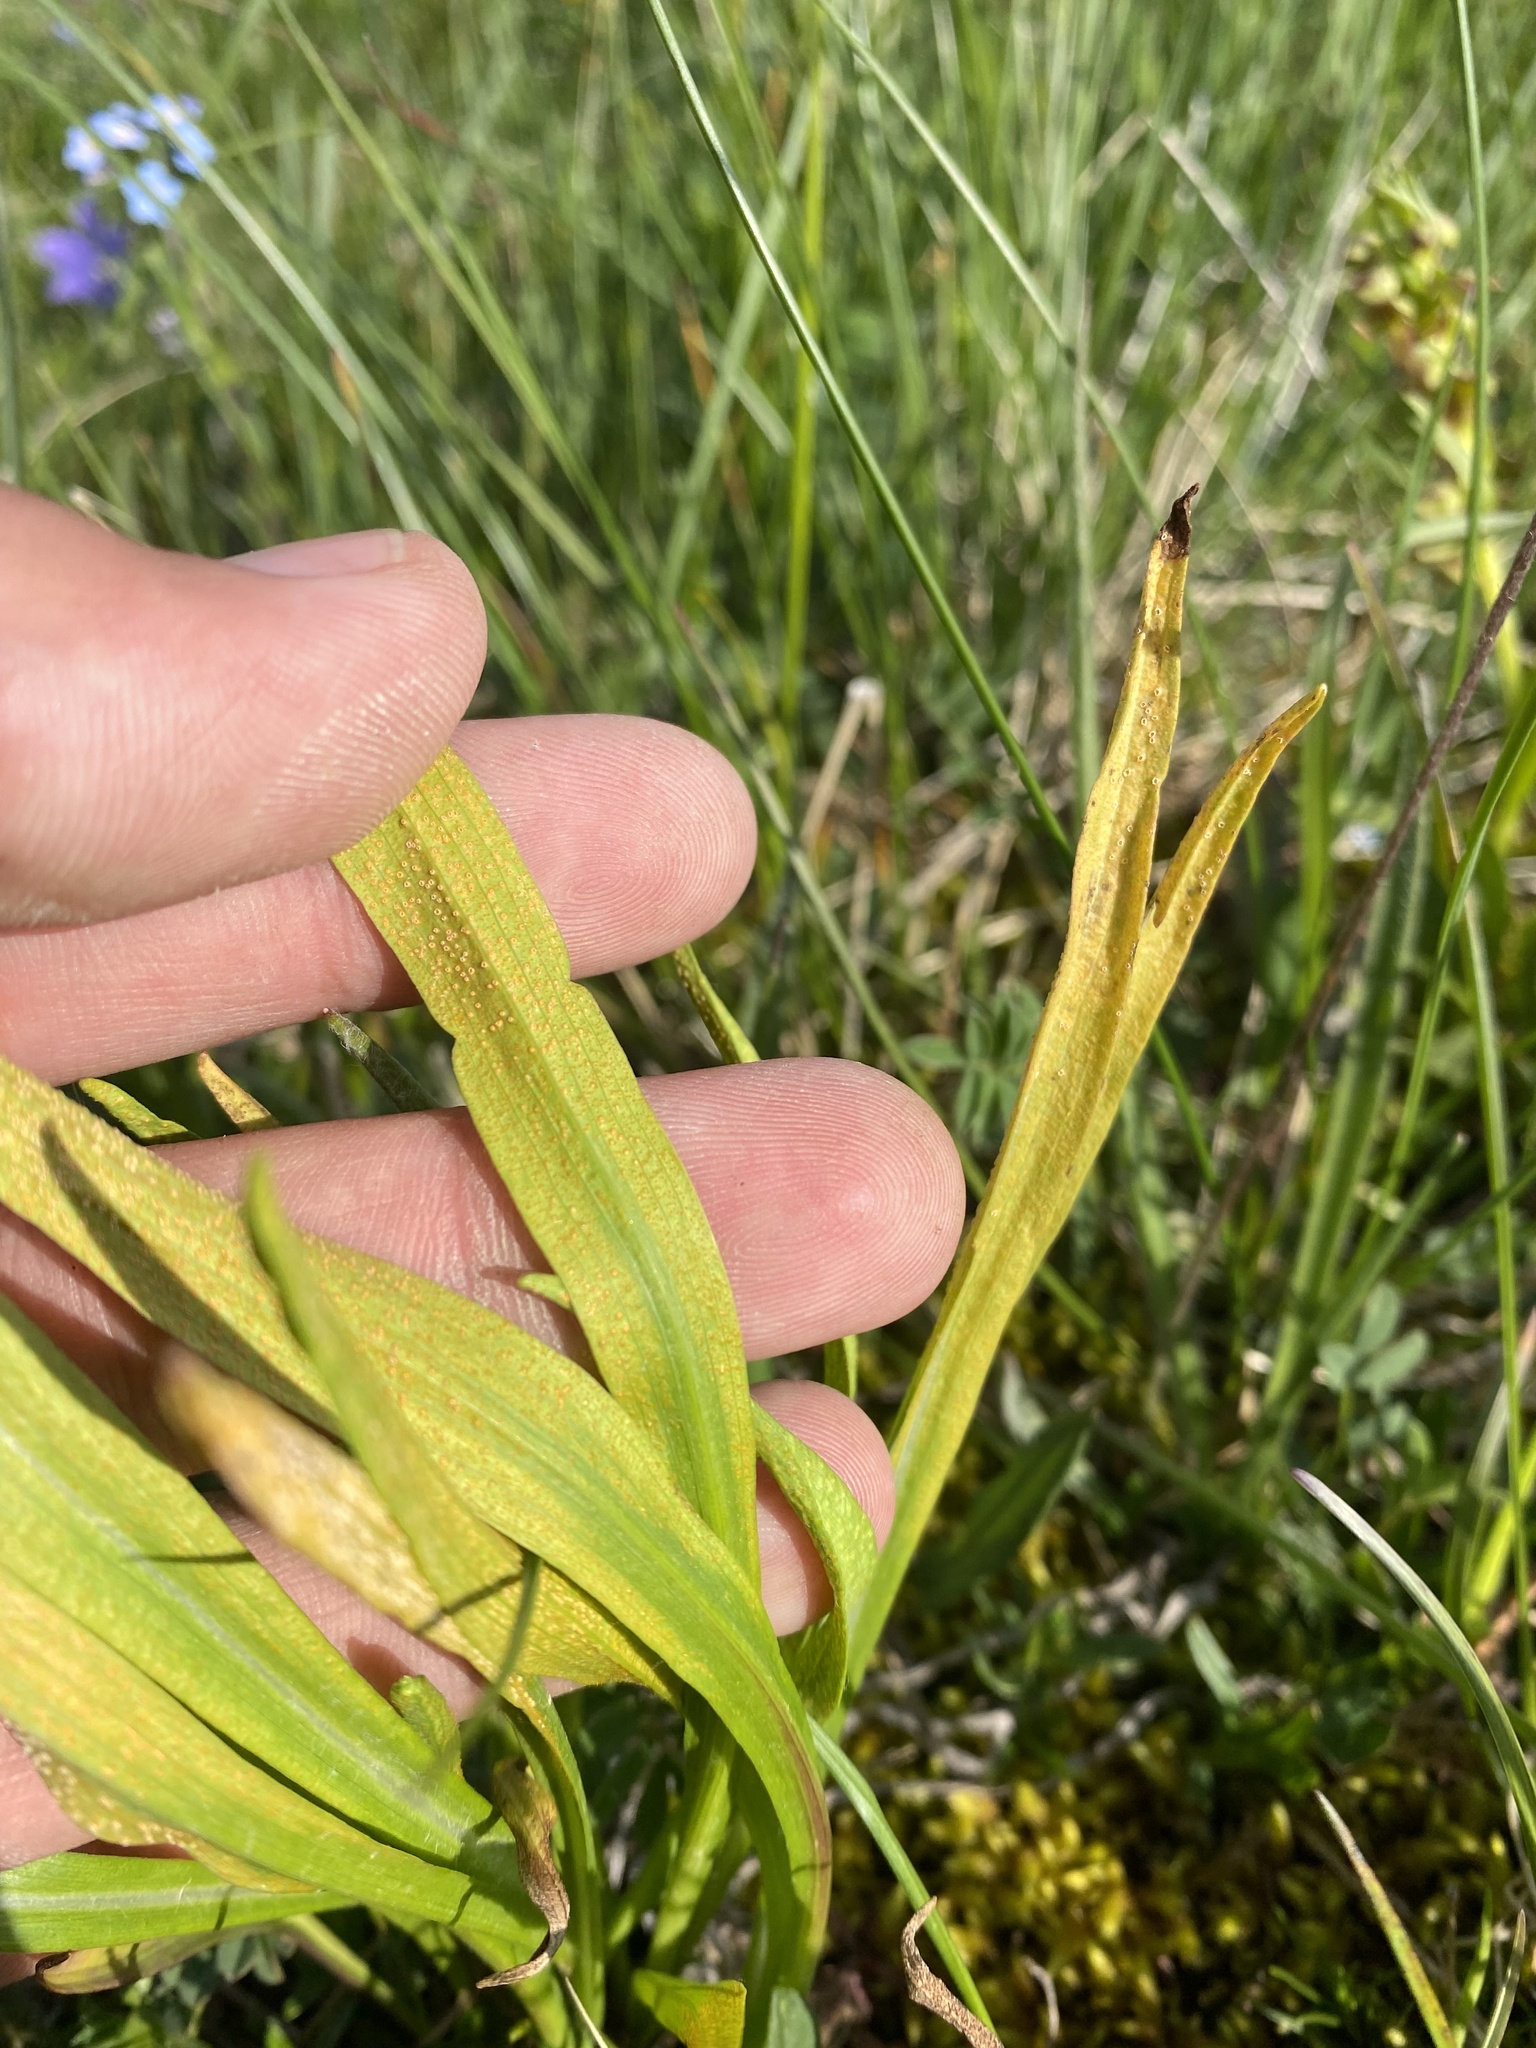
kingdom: Fungi
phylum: Basidiomycota
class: Pucciniomycetes
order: Pucciniales
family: Pucciniaceae
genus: Puccinia
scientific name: Puccinia sii-falcariae
